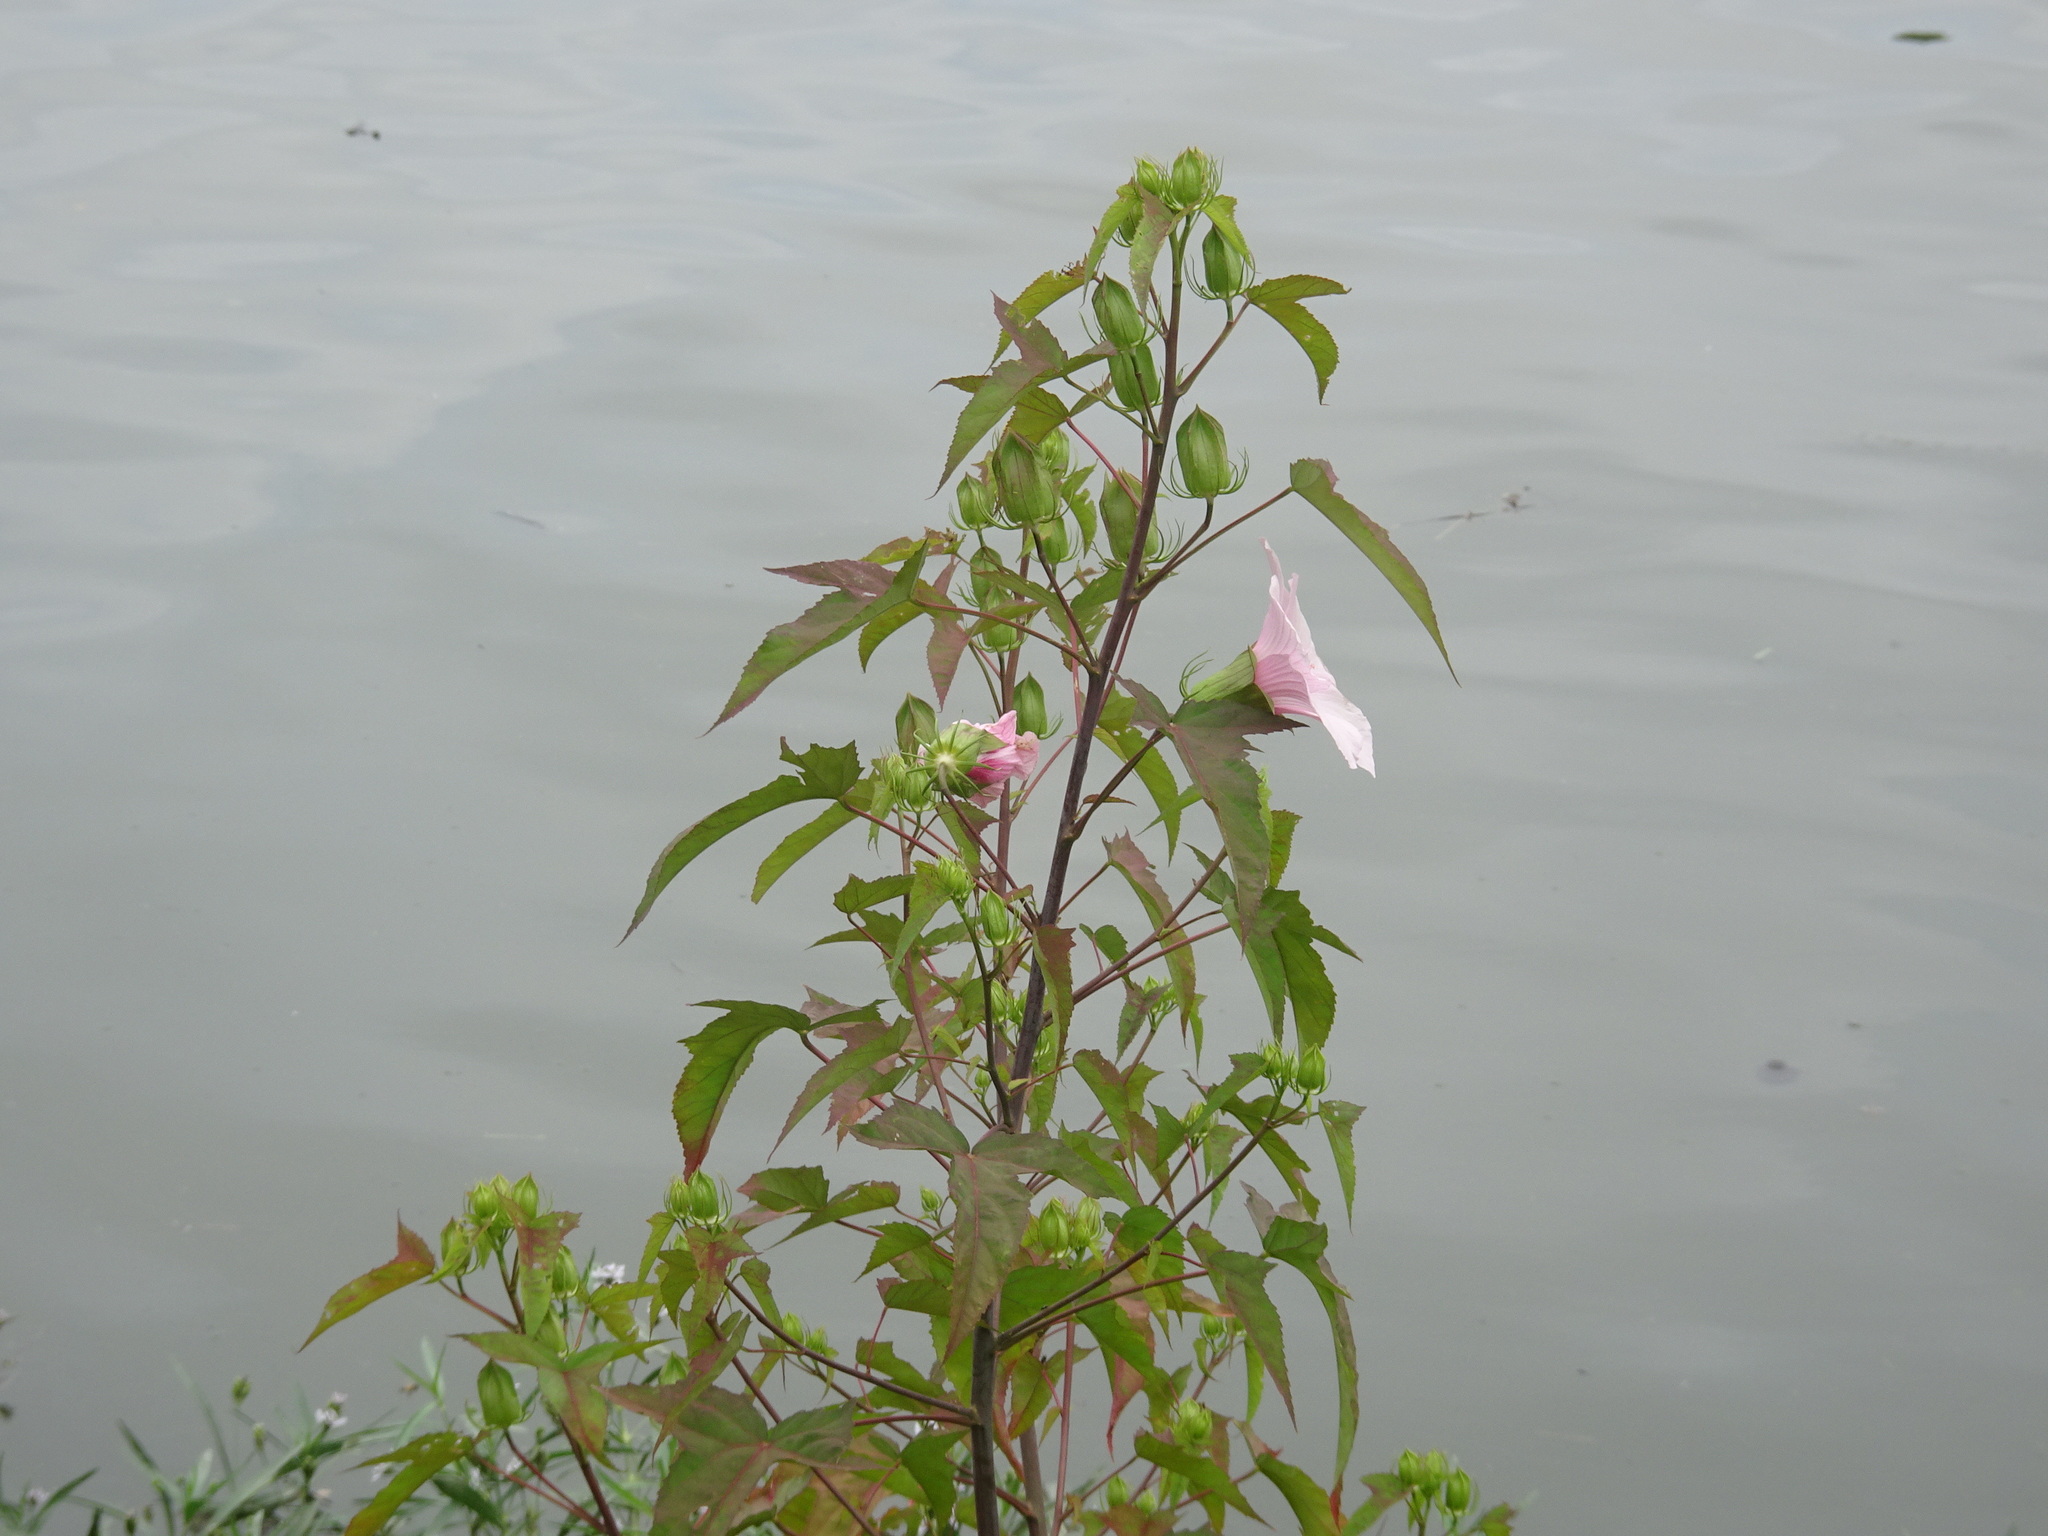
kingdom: Plantae
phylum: Tracheophyta
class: Magnoliopsida
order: Malvales
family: Malvaceae
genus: Hibiscus
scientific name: Hibiscus laevis
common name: Scarlet rose-mallow
